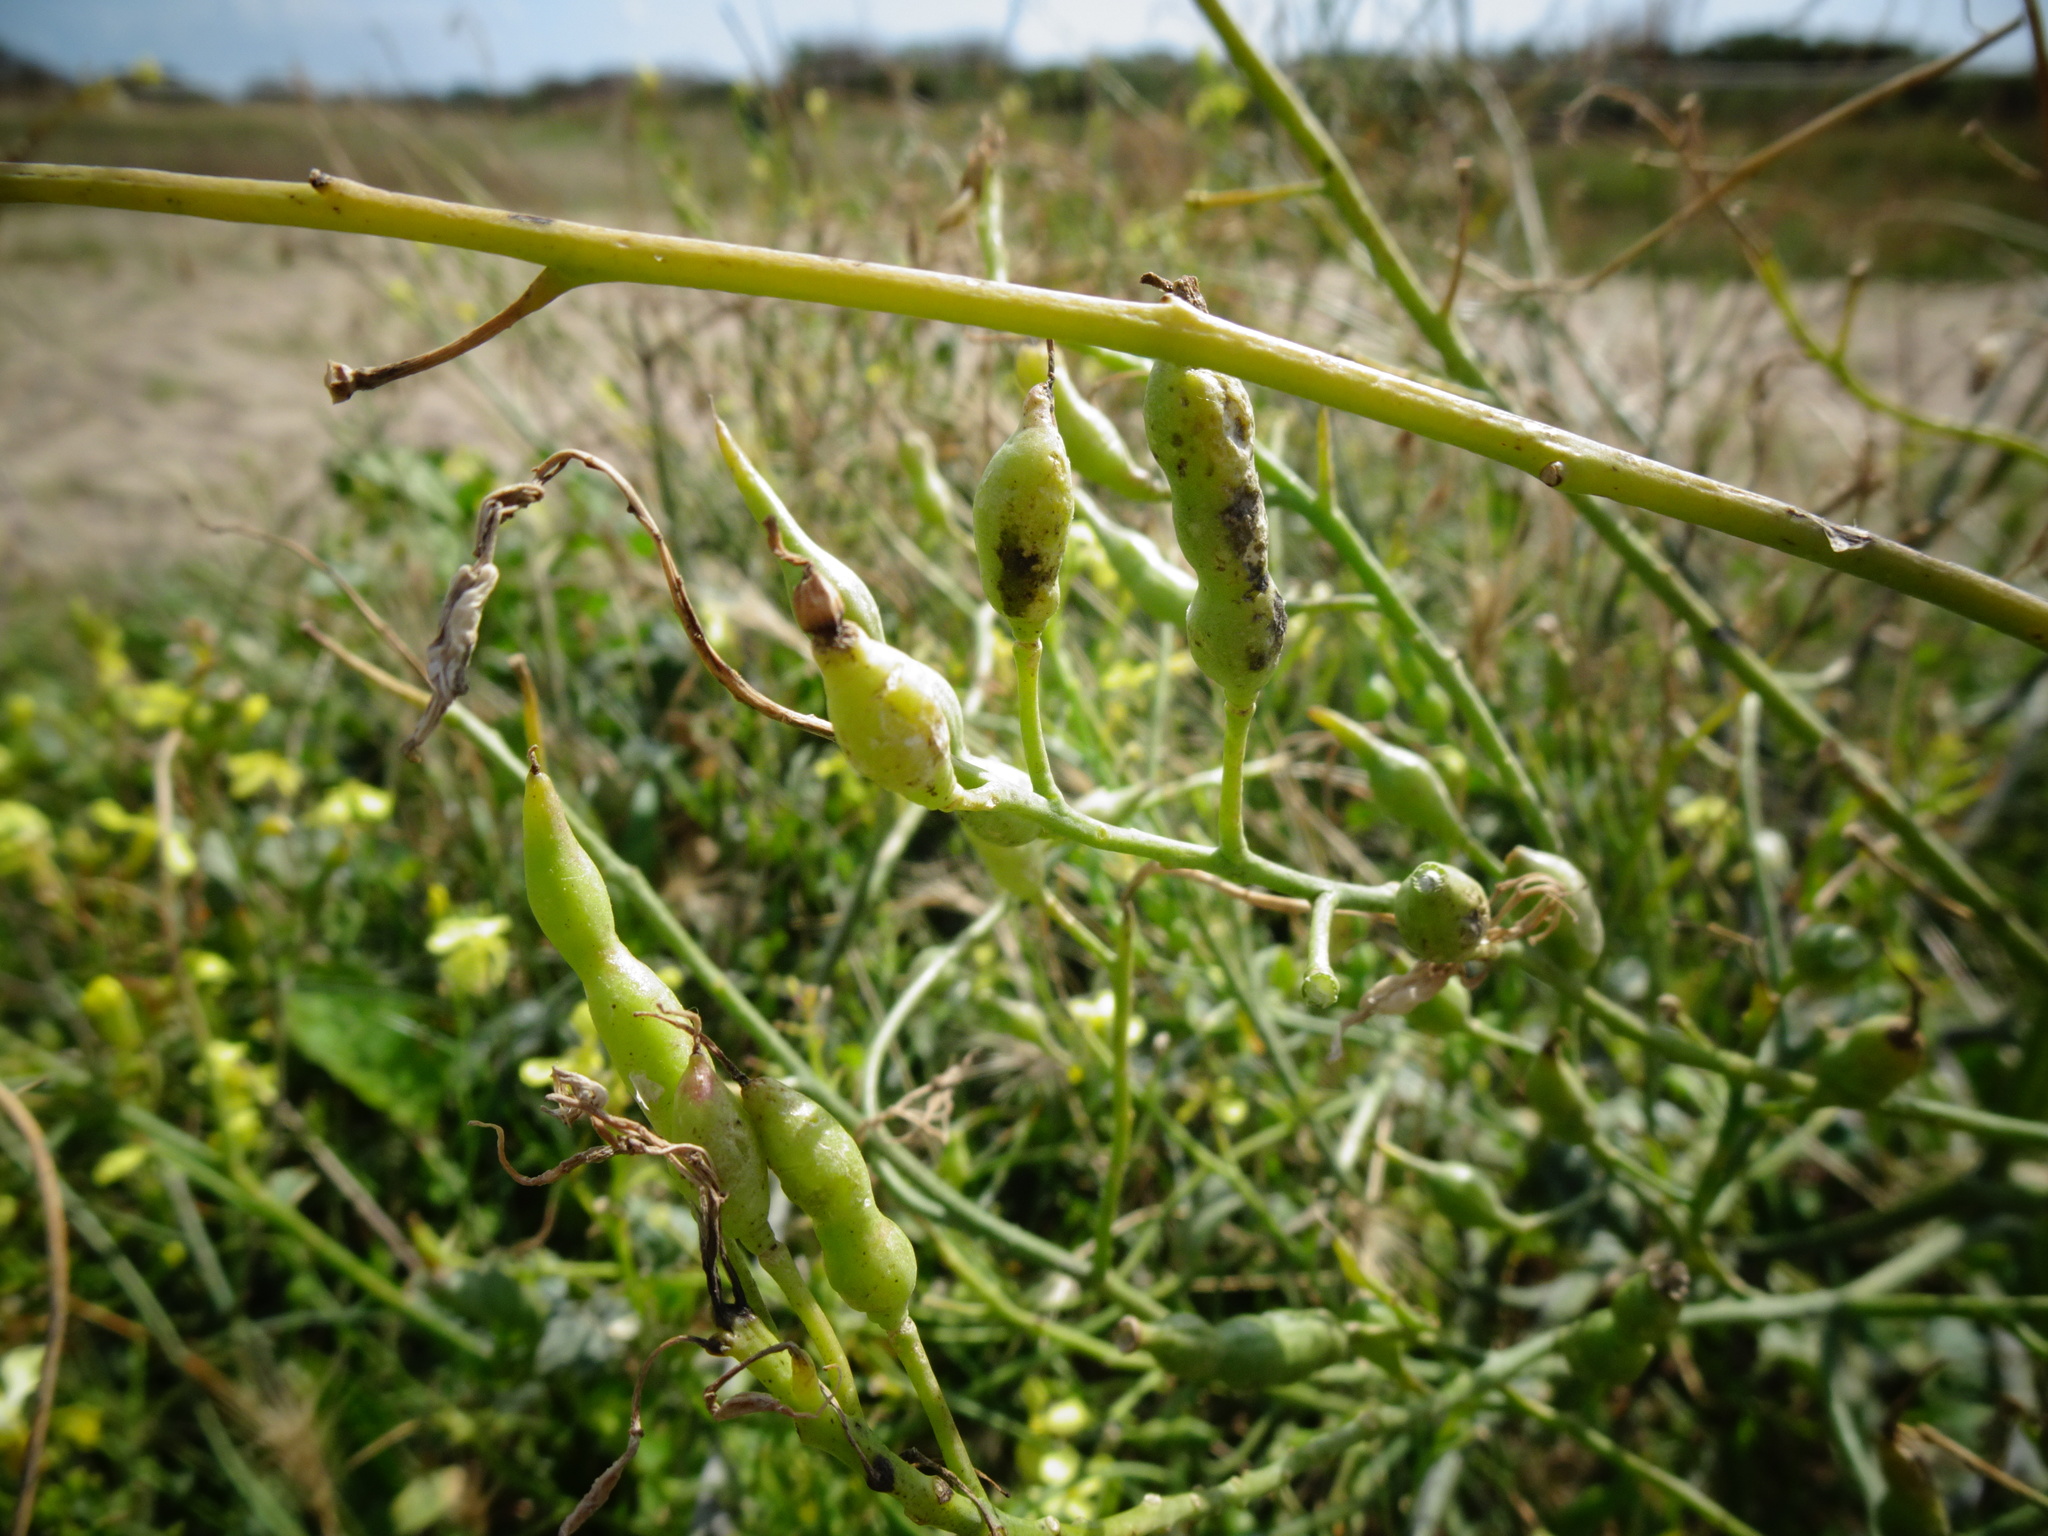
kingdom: Plantae
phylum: Tracheophyta
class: Magnoliopsida
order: Brassicales
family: Brassicaceae
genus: Raphanus
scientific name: Raphanus raphanistrum
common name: Wild radish
